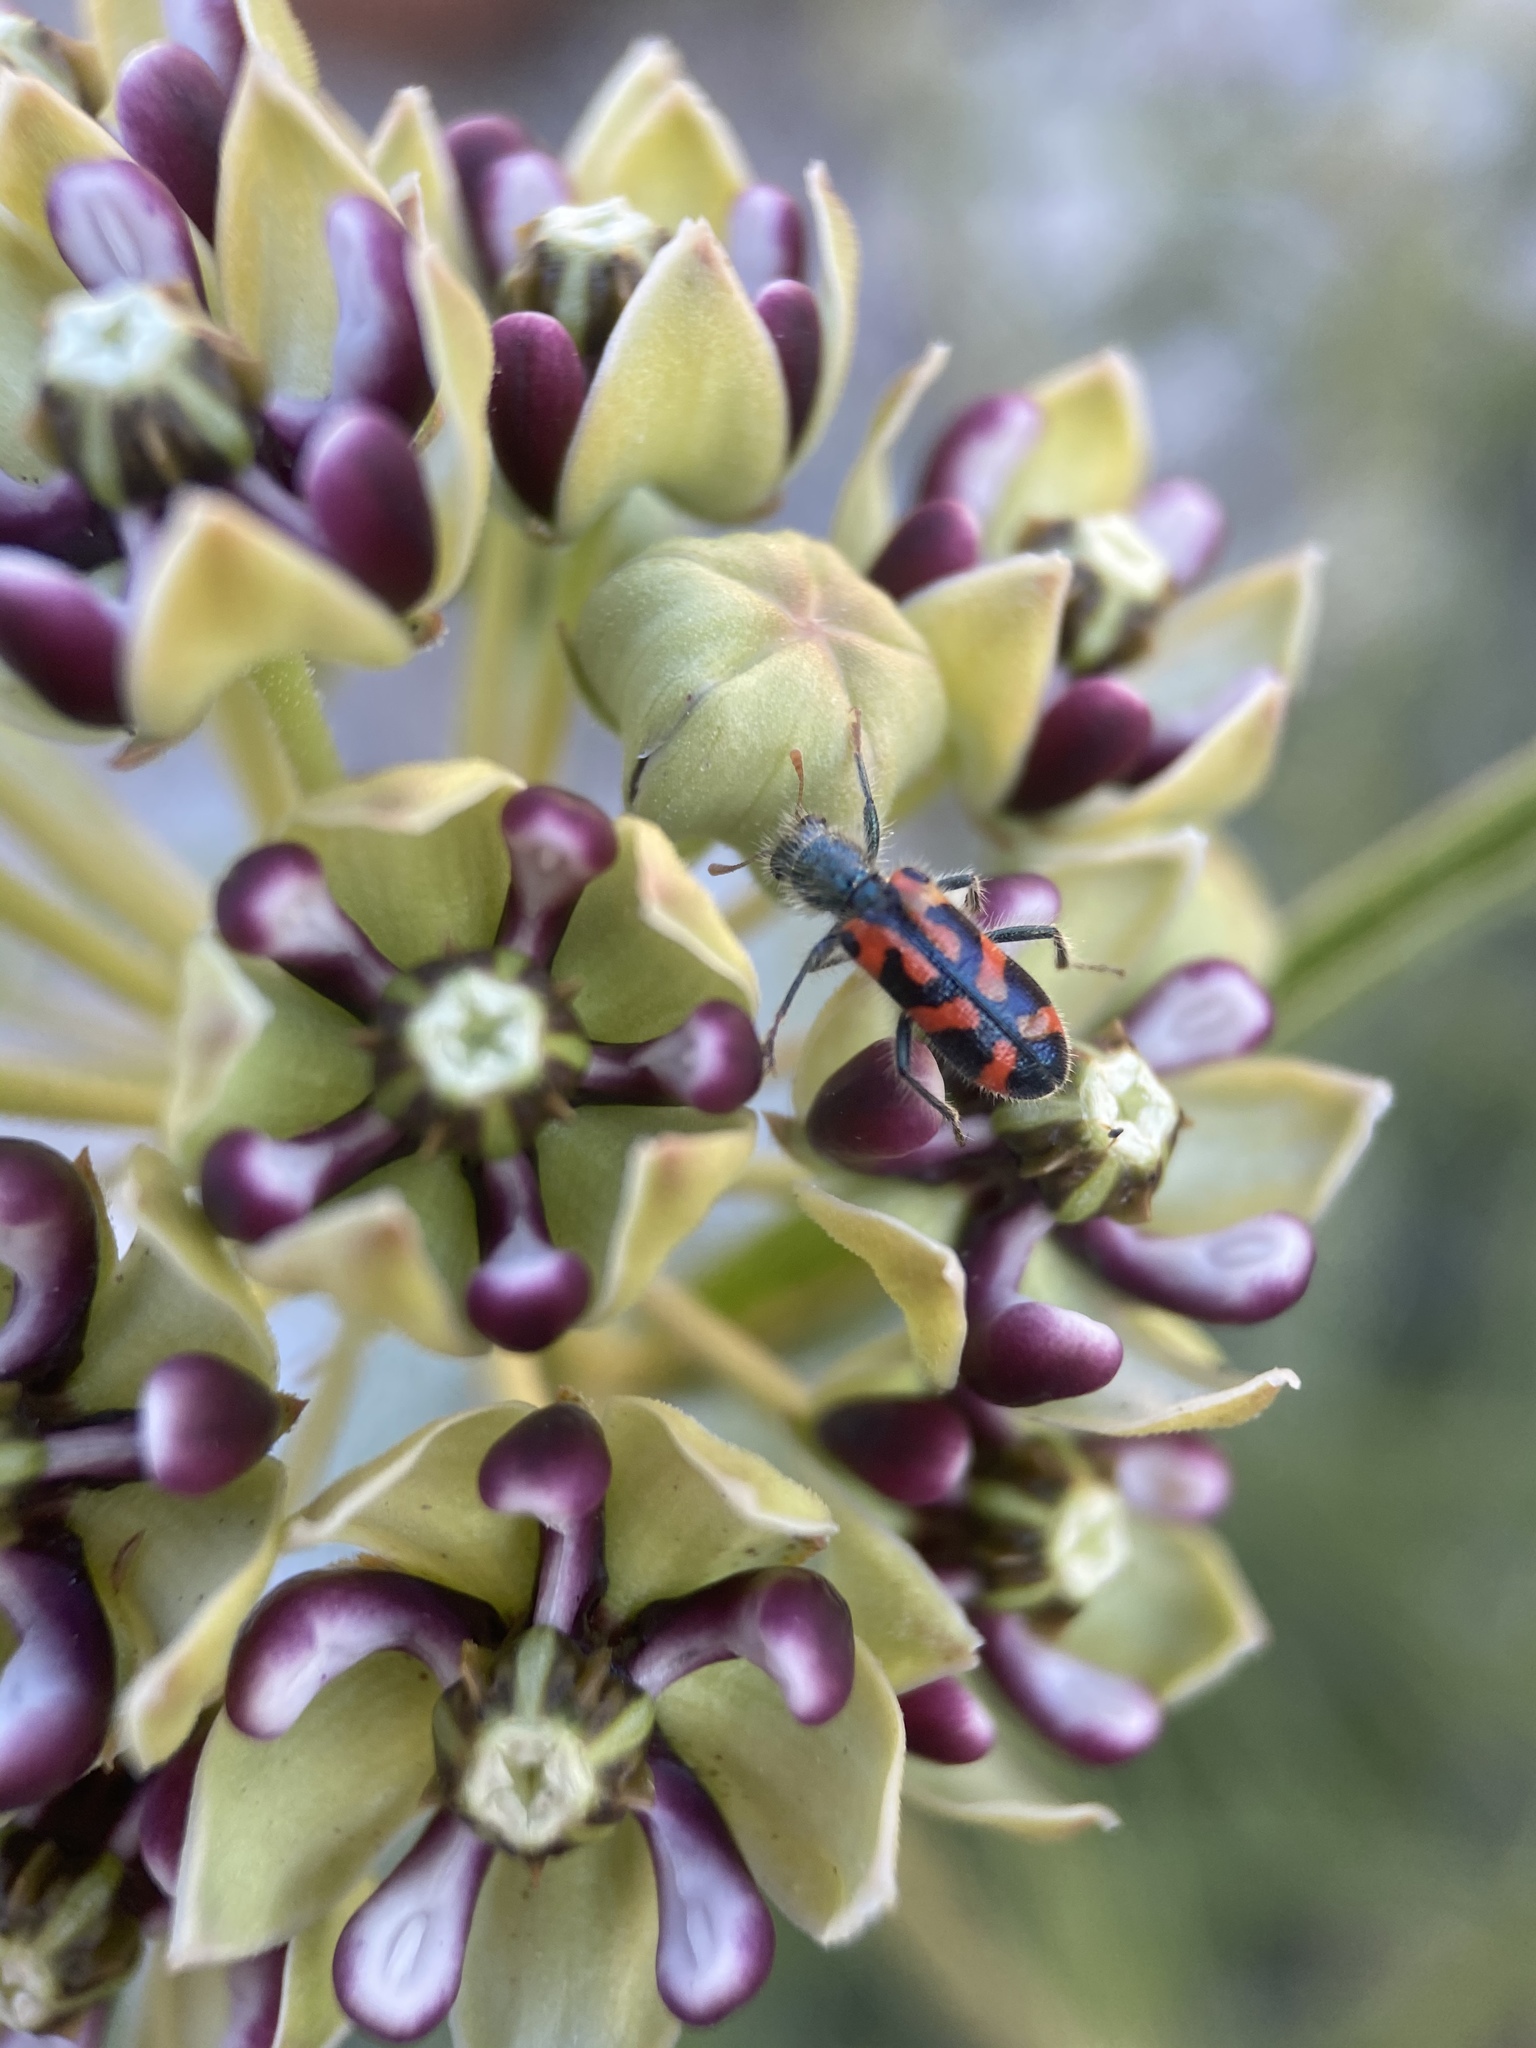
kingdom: Animalia
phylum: Arthropoda
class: Insecta
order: Coleoptera
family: Cleridae
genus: Trichodes
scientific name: Trichodes ornatus
